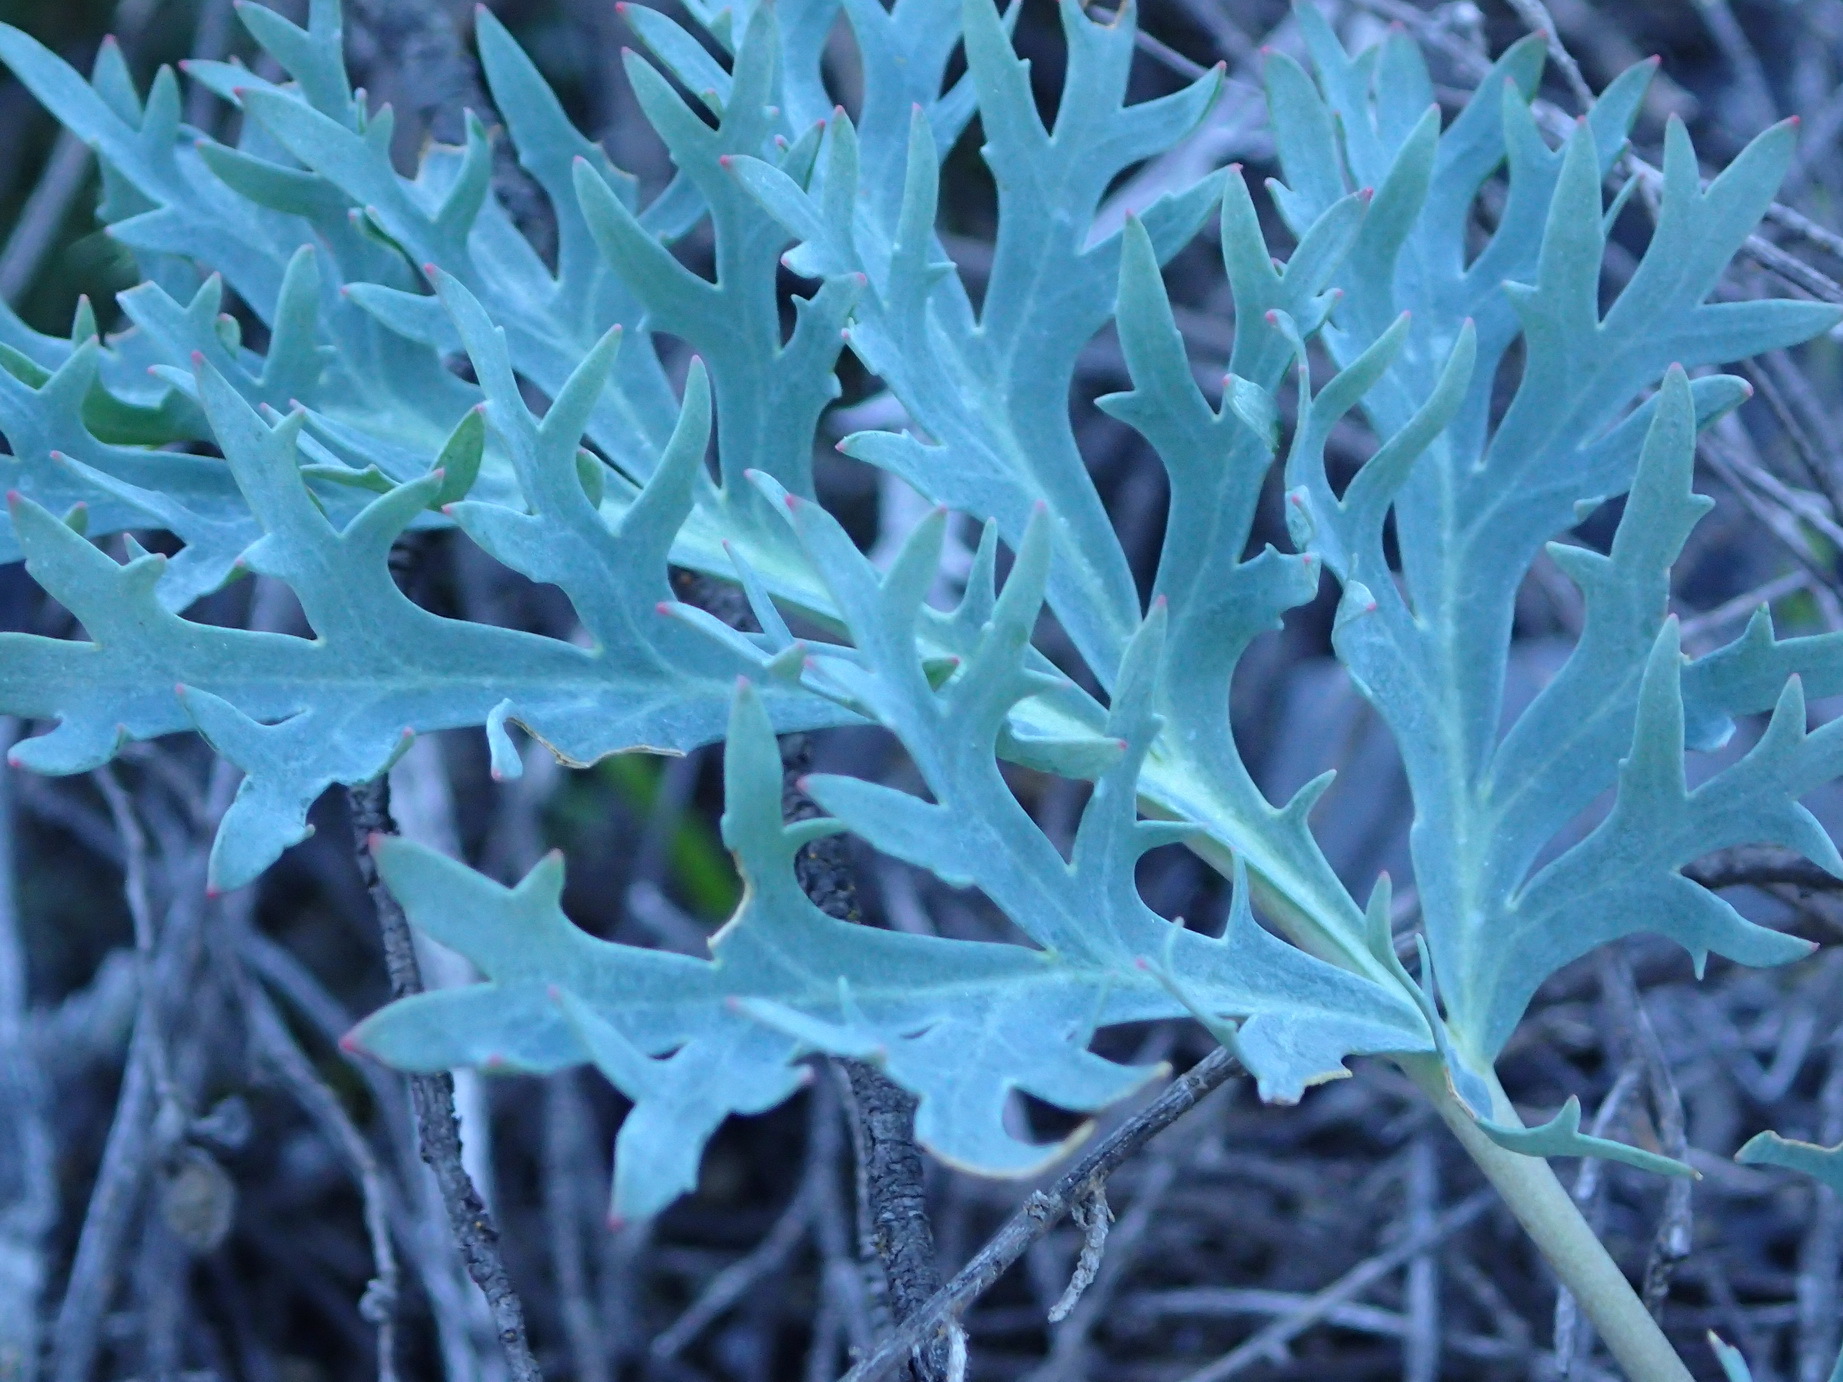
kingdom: Plantae
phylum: Tracheophyta
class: Magnoliopsida
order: Geraniales
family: Geraniaceae
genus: Pelargonium
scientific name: Pelargonium pillansii
